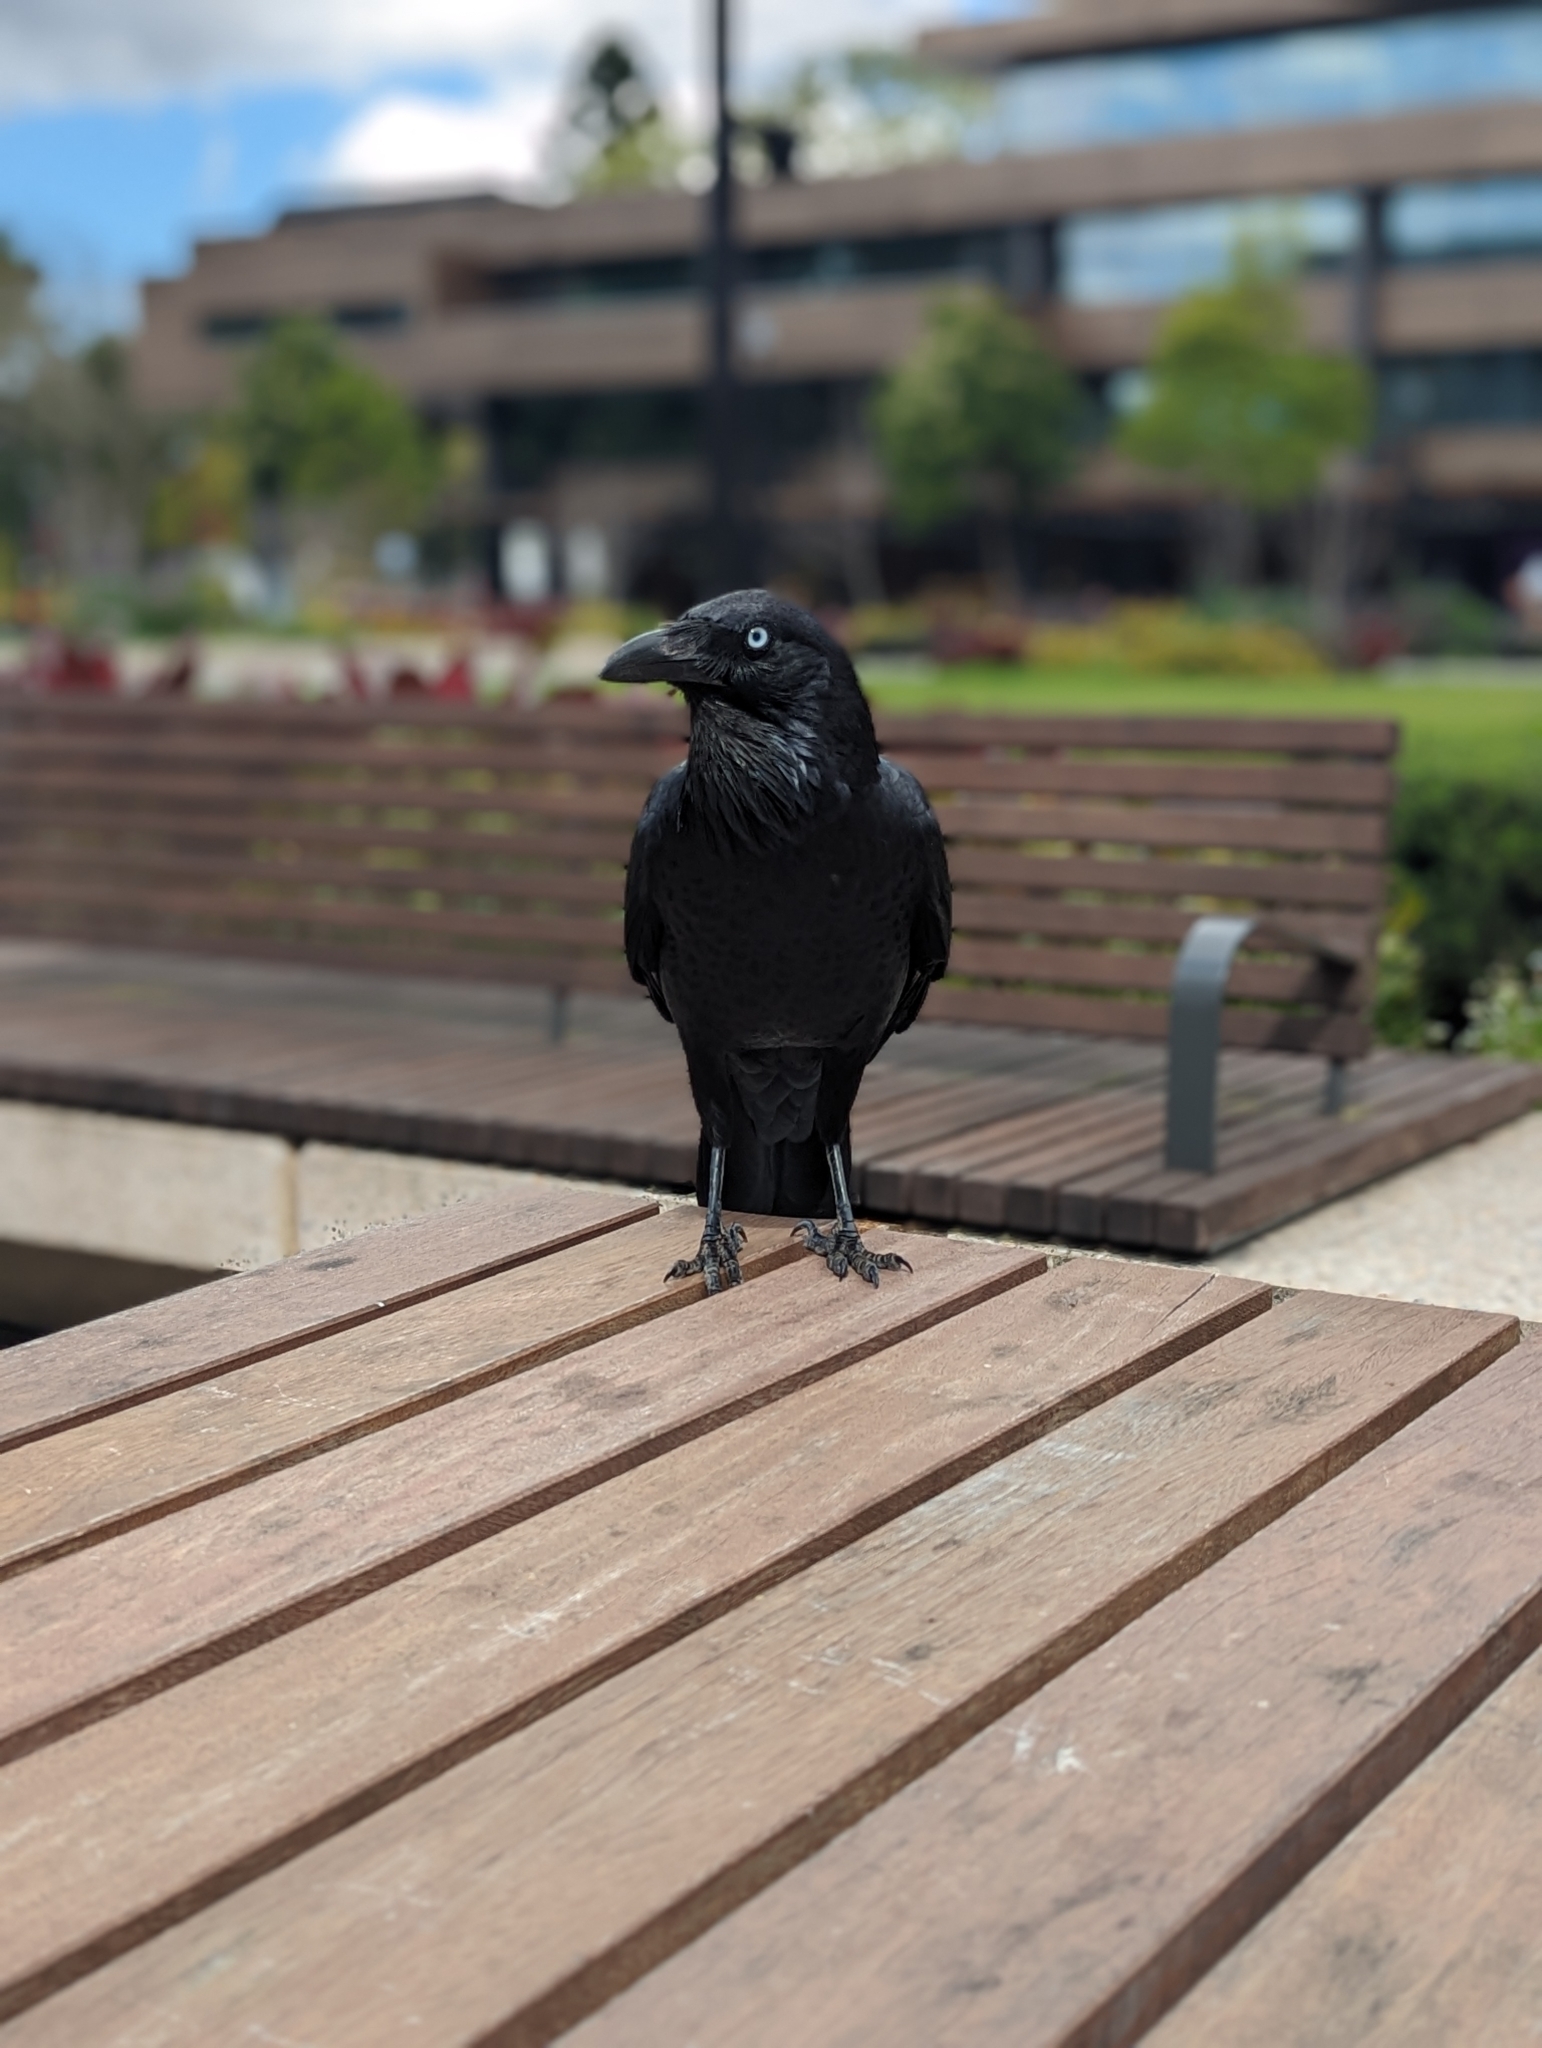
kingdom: Animalia
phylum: Chordata
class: Aves
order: Passeriformes
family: Corvidae
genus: Corvus
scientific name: Corvus coronoides
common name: Australian raven
